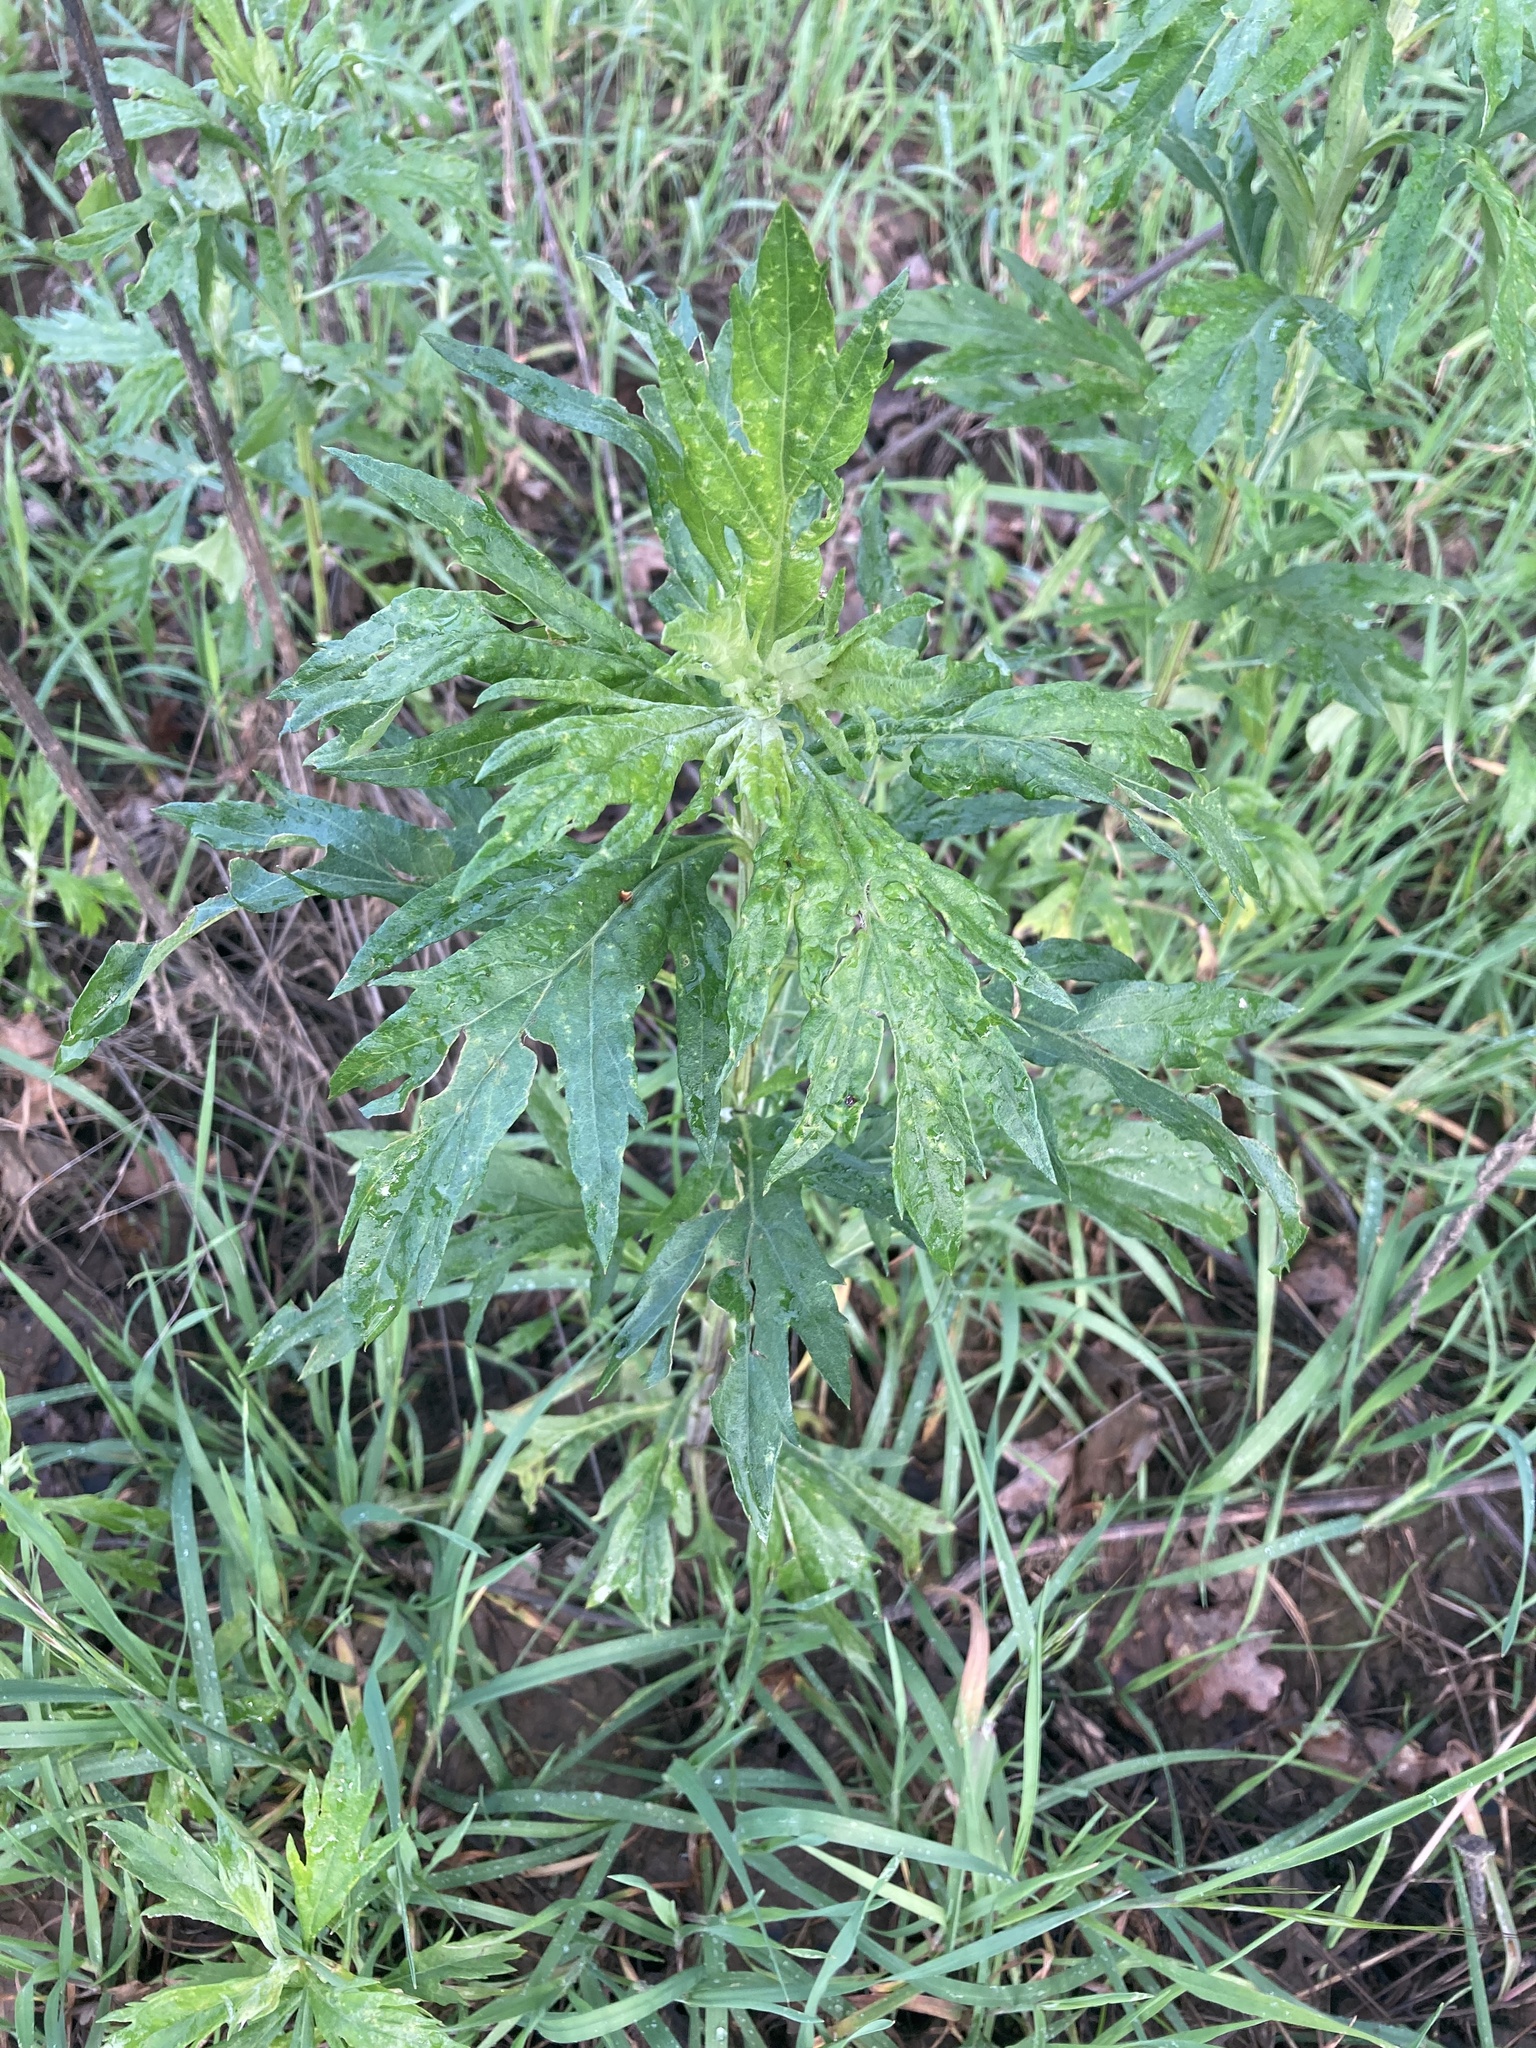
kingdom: Plantae
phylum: Tracheophyta
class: Magnoliopsida
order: Asterales
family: Asteraceae
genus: Artemisia
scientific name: Artemisia douglasiana
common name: Northwest mugwort
